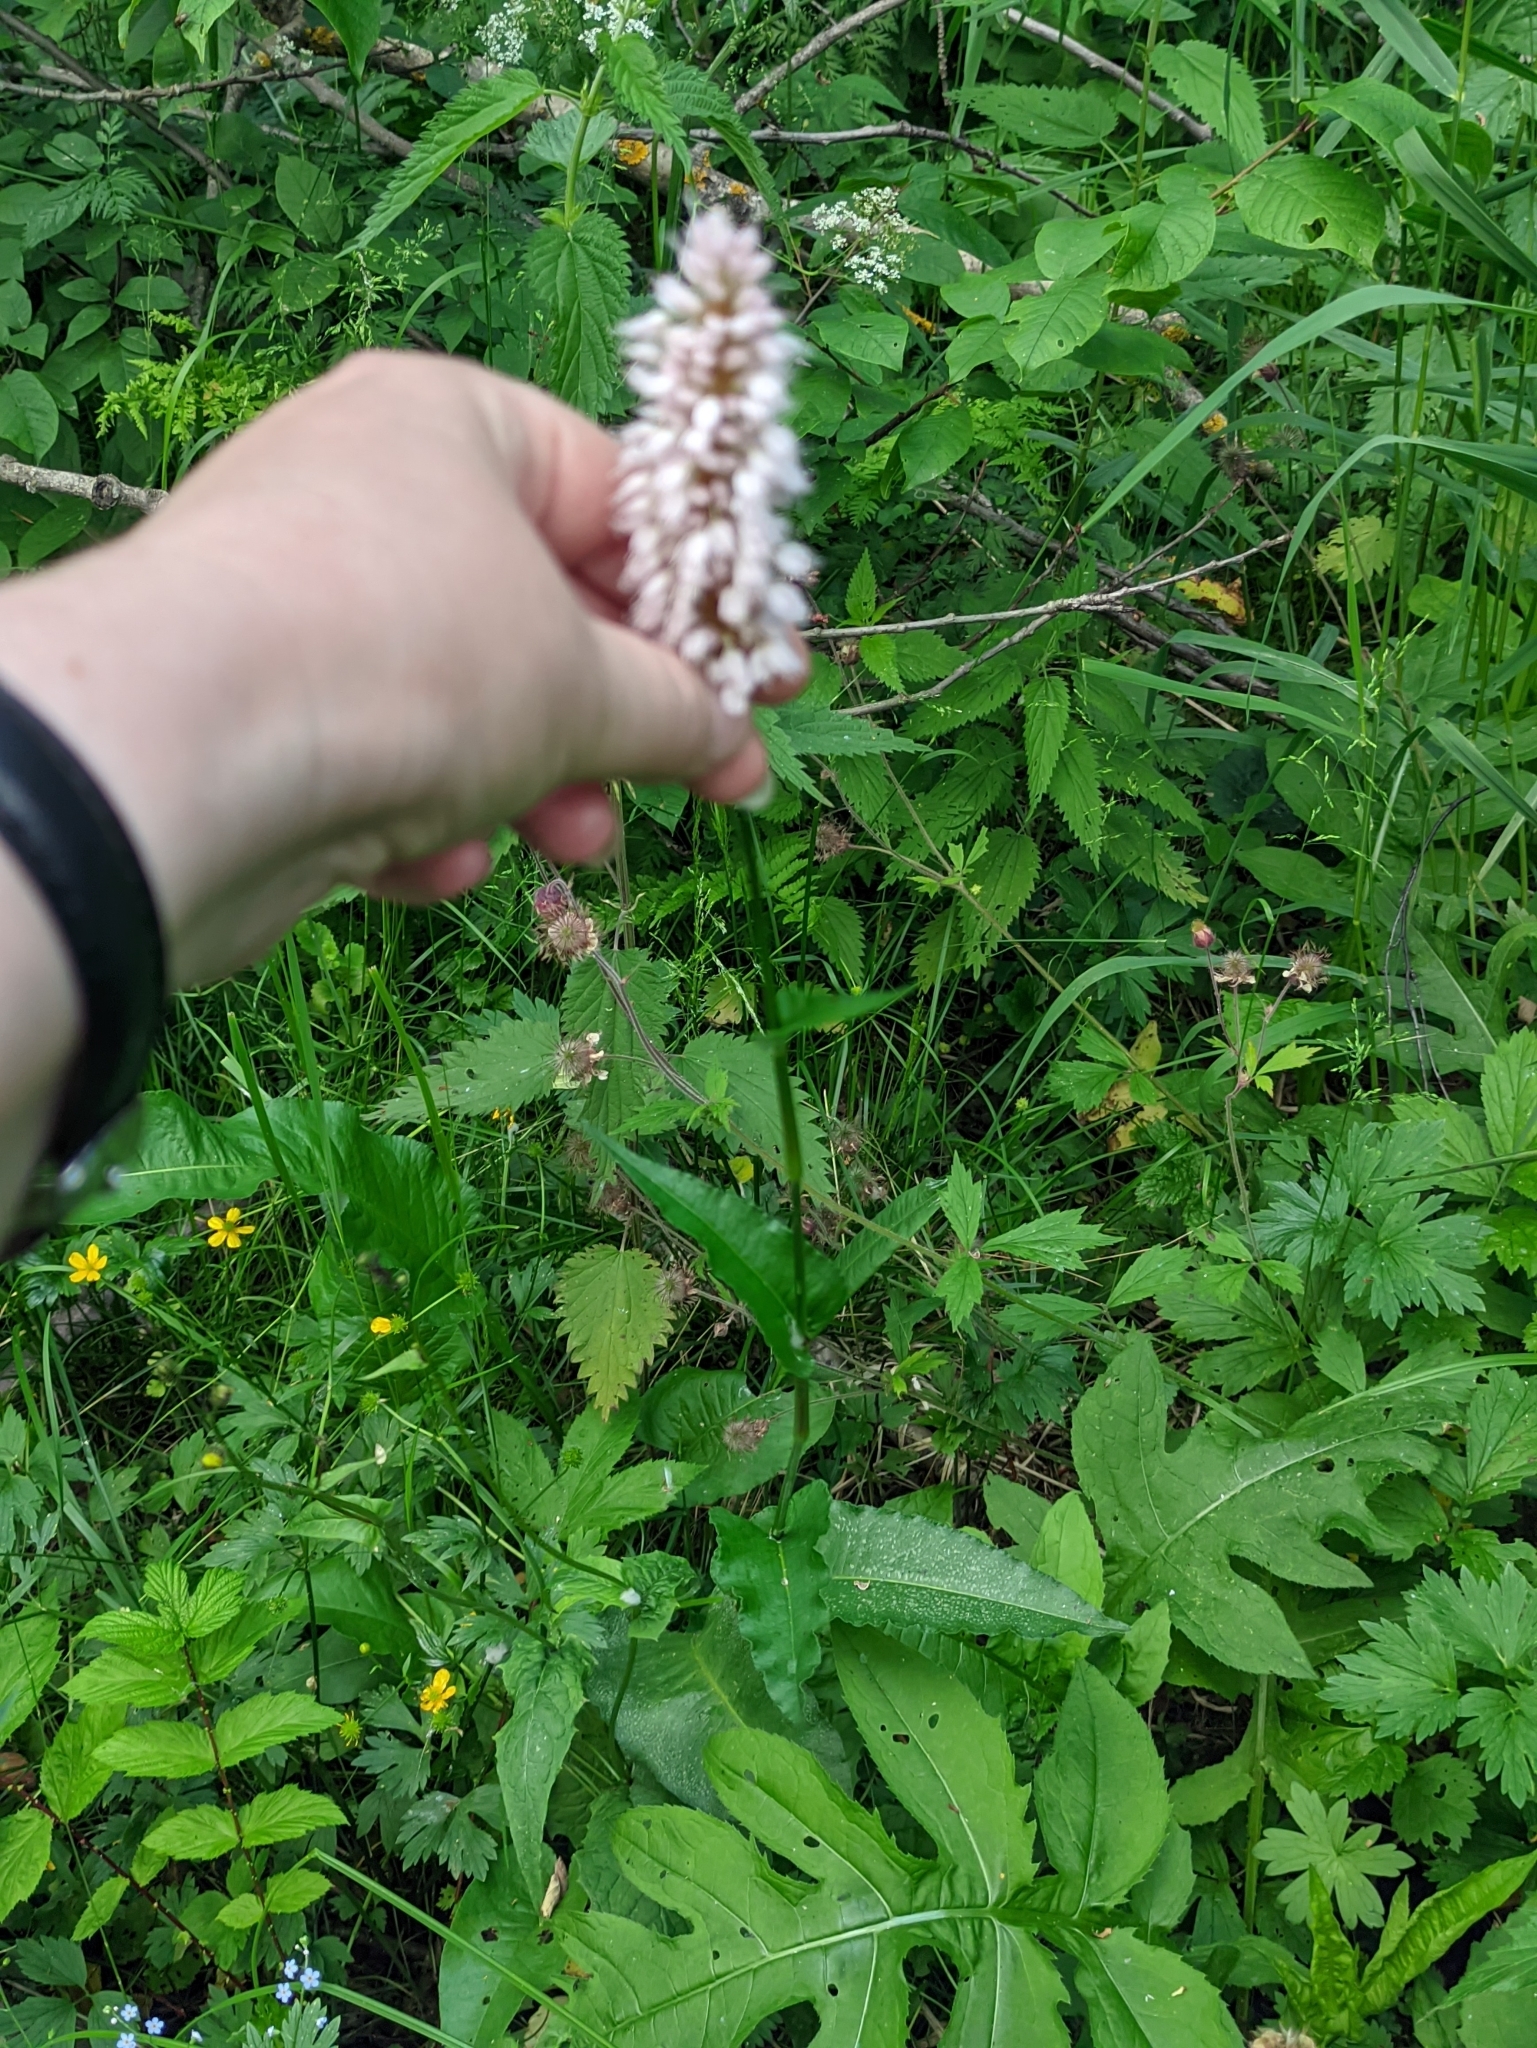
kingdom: Plantae
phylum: Tracheophyta
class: Magnoliopsida
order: Caryophyllales
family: Polygonaceae
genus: Bistorta
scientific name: Bistorta officinalis
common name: Common bistort
